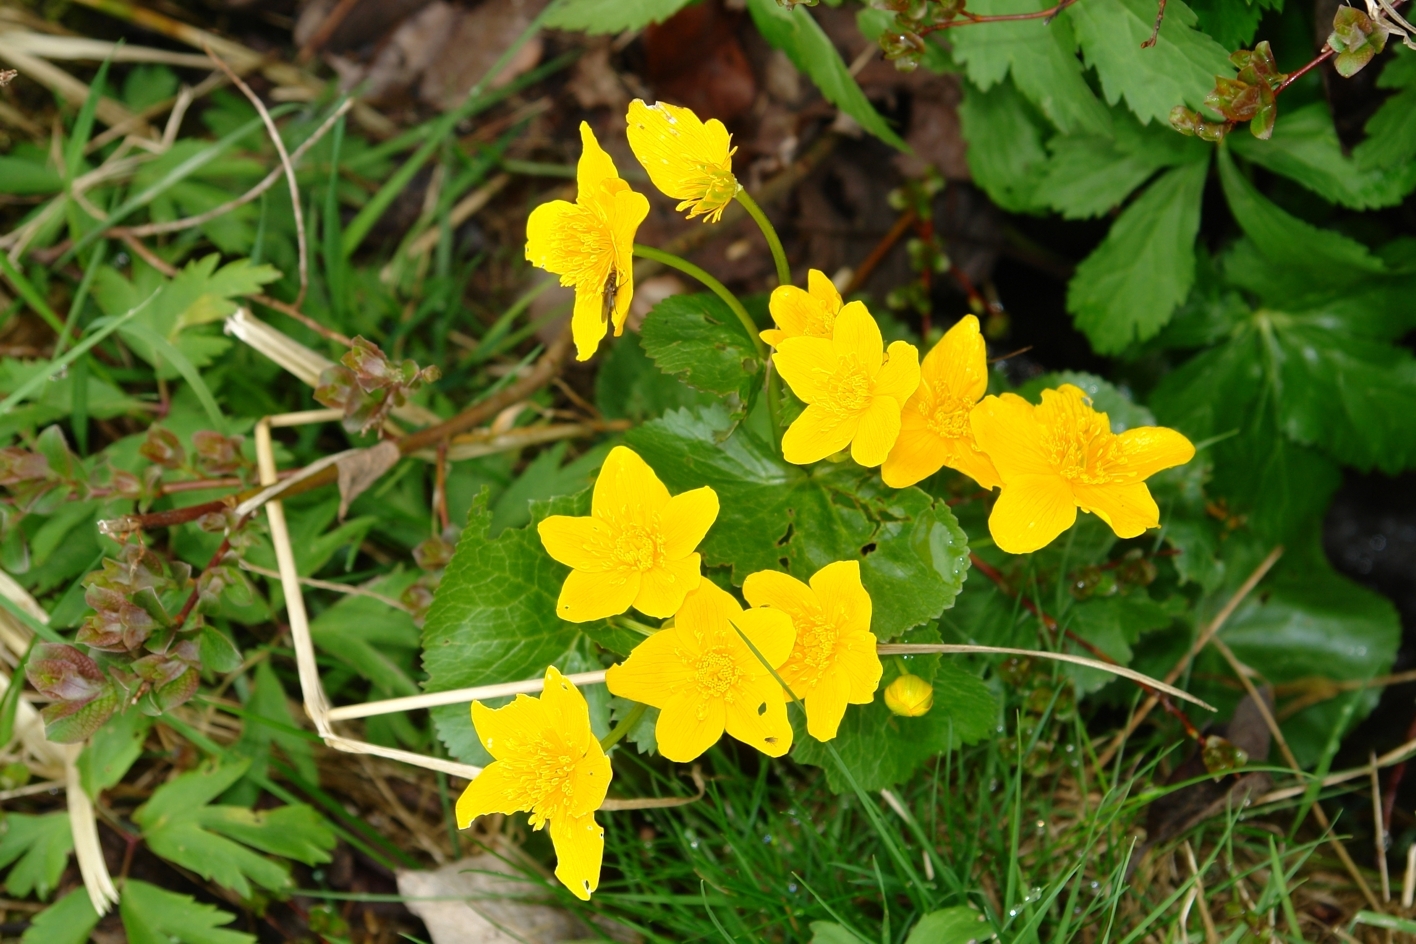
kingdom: Plantae
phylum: Tracheophyta
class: Magnoliopsida
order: Ranunculales
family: Ranunculaceae
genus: Caltha
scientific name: Caltha palustris
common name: Marsh marigold
